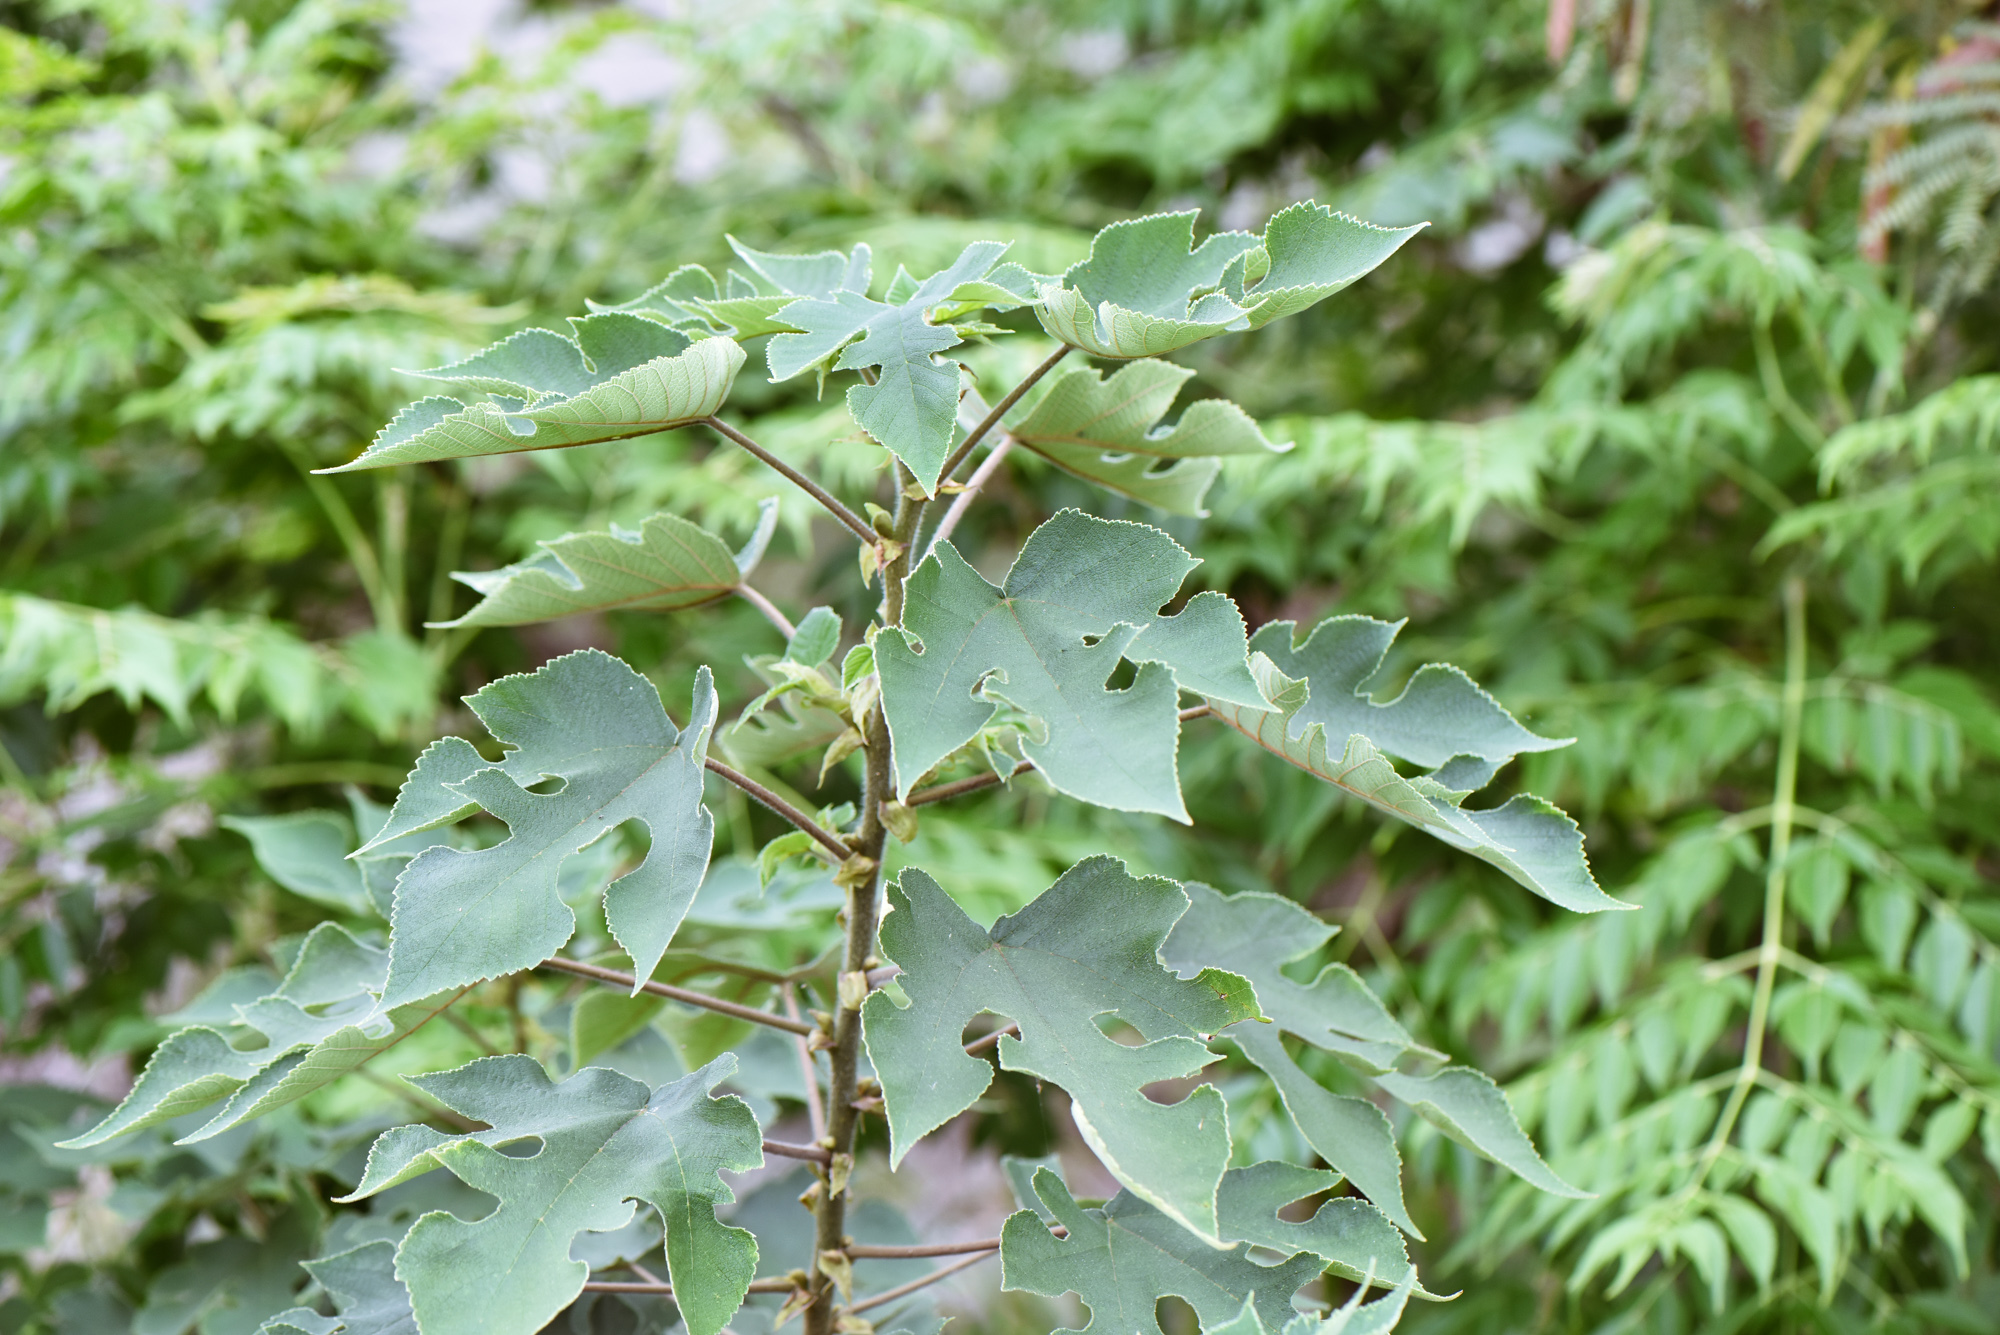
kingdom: Plantae
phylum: Tracheophyta
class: Magnoliopsida
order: Rosales
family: Moraceae
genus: Broussonetia
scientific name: Broussonetia papyrifera
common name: Paper mulberry
